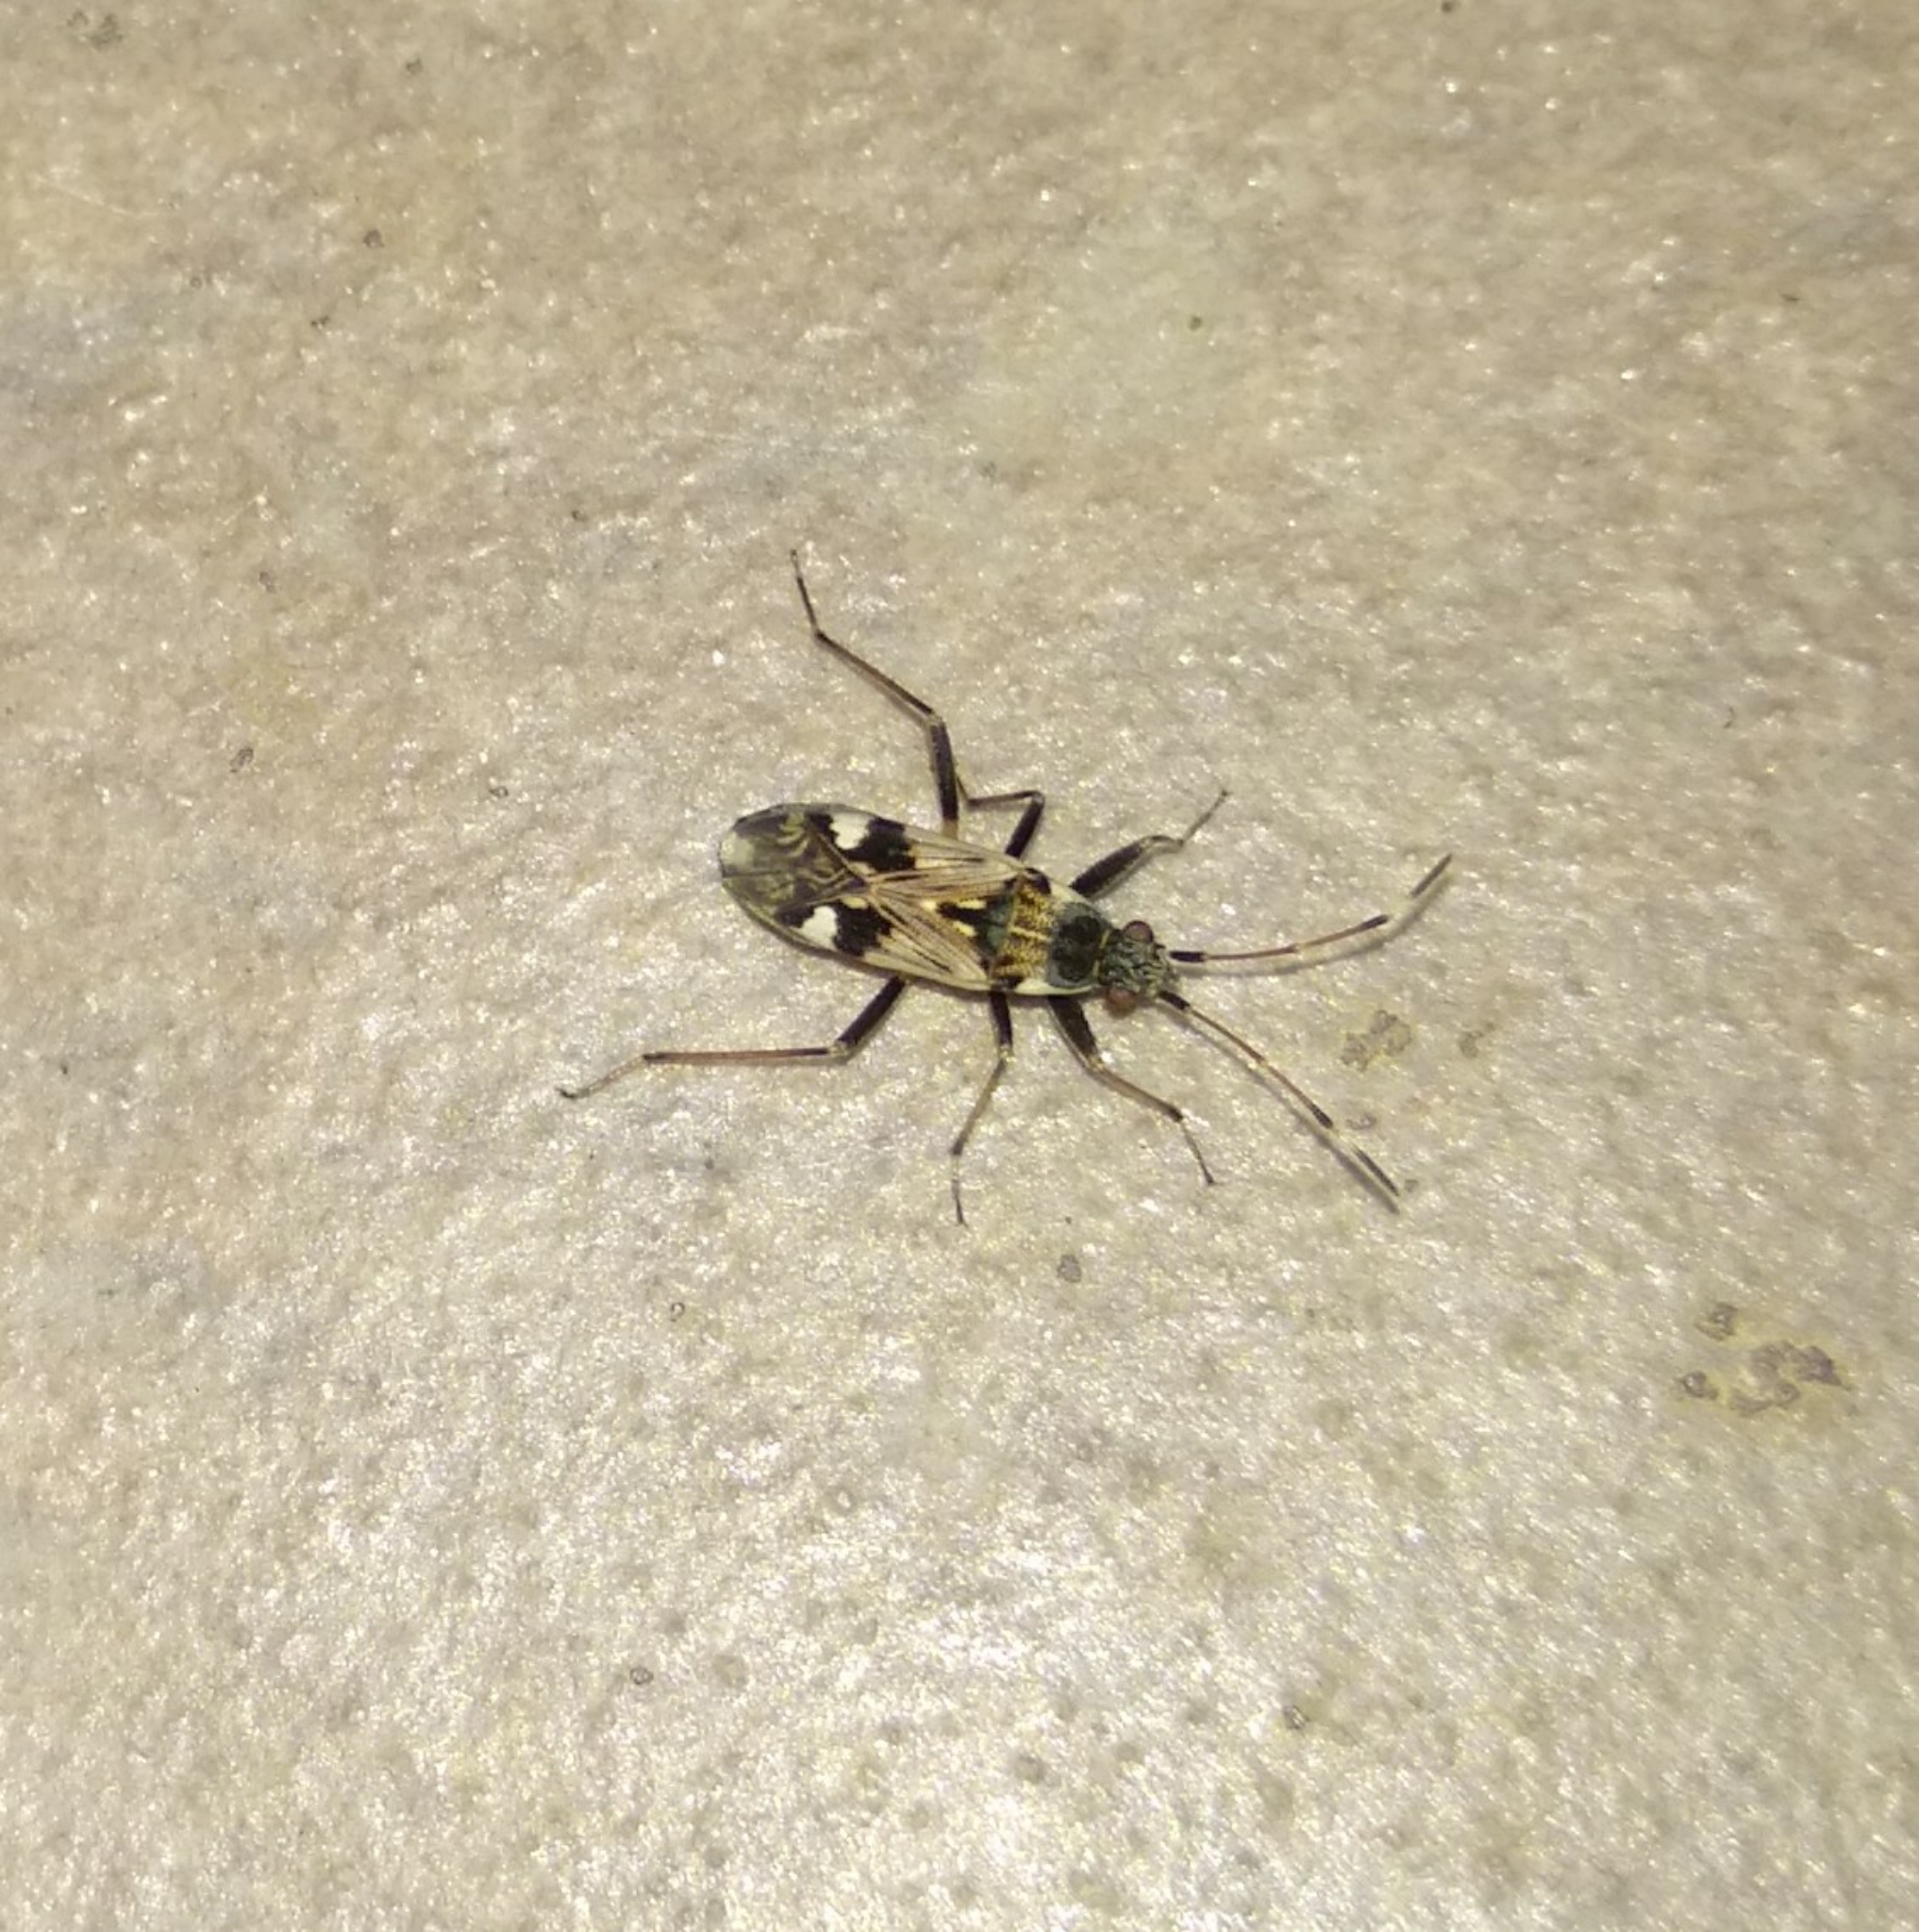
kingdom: Animalia
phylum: Arthropoda
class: Insecta
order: Hemiptera
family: Rhyparochromidae
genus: Beosus
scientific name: Beosus maritimus
